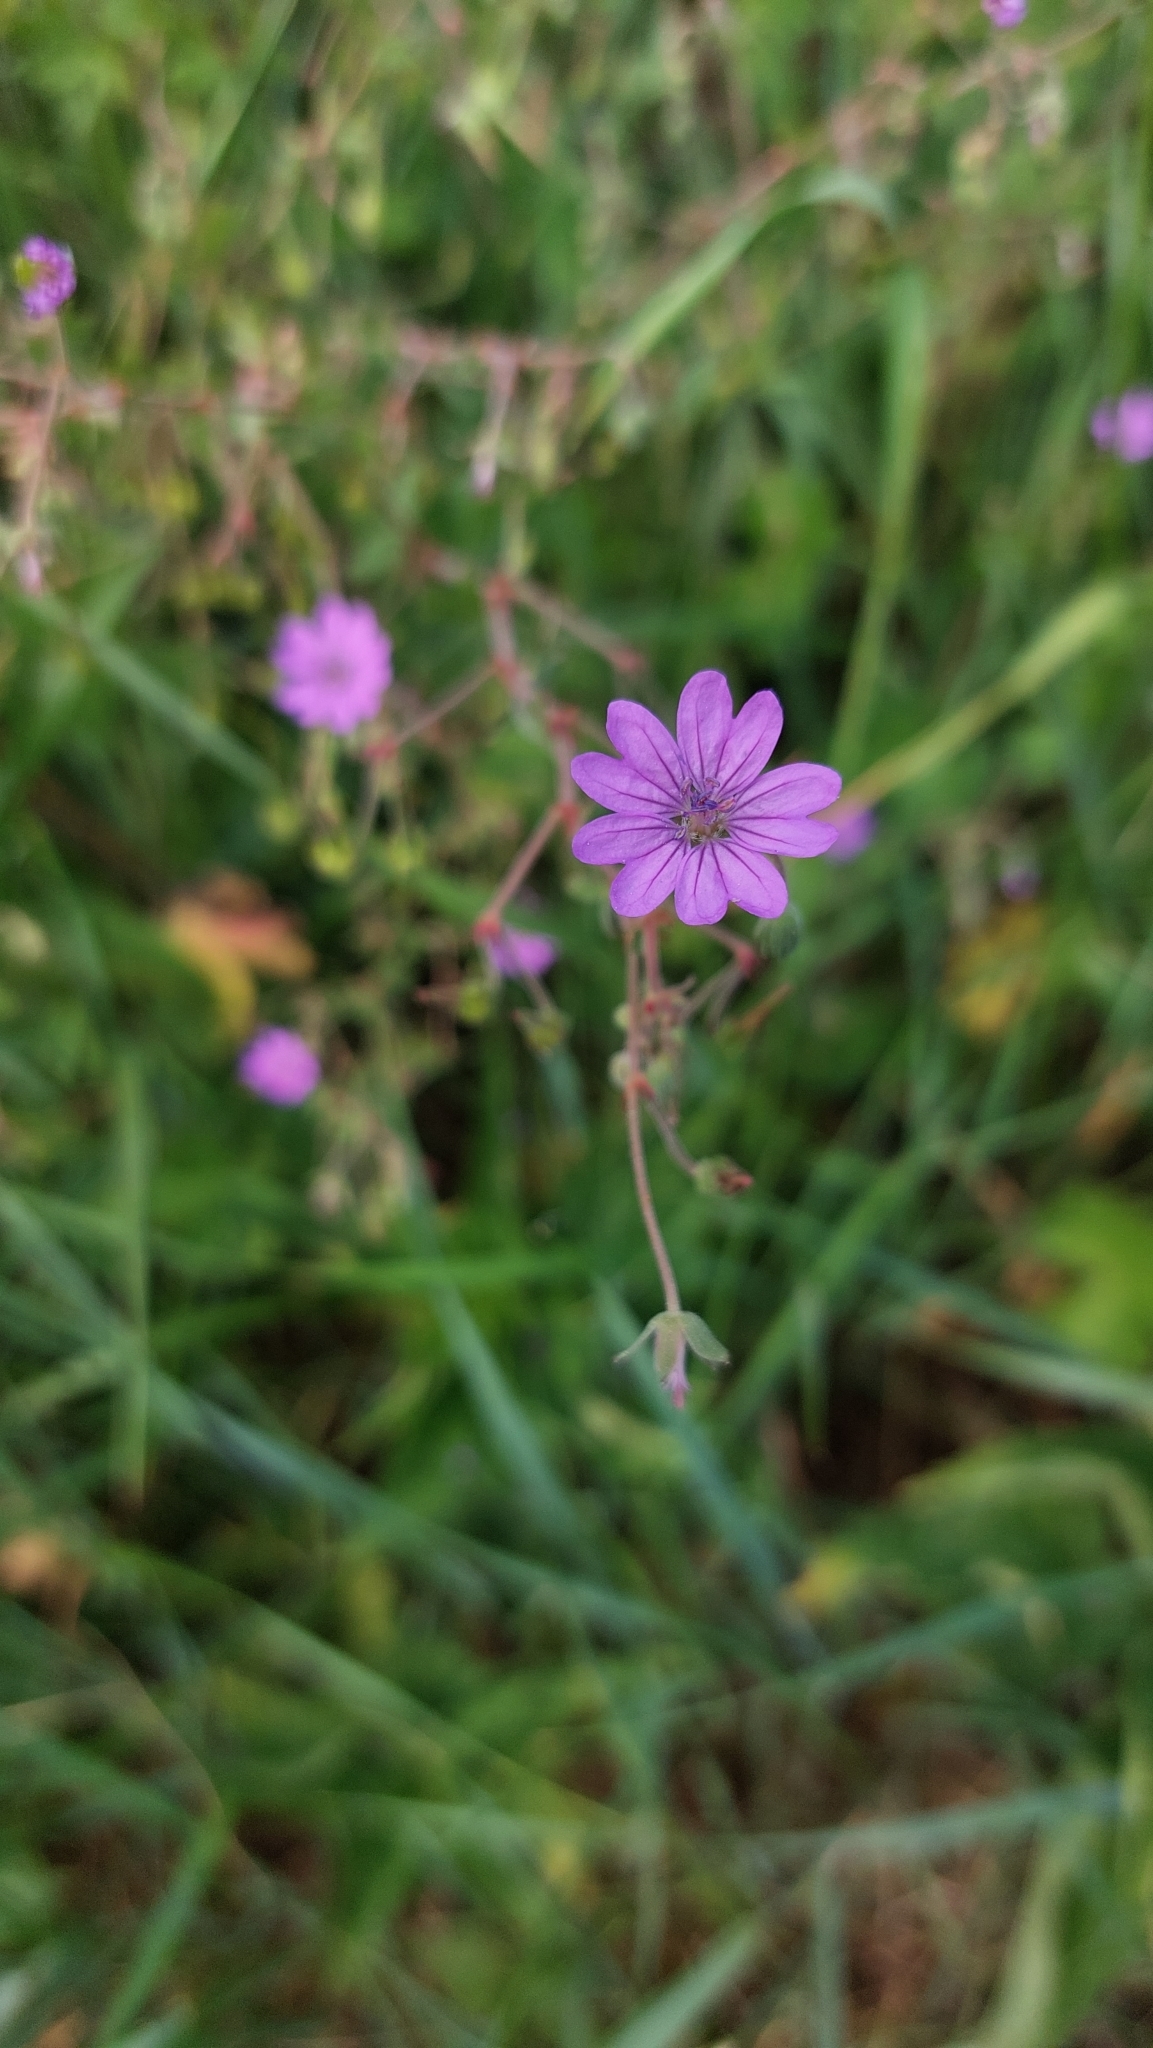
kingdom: Plantae
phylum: Tracheophyta
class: Magnoliopsida
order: Geraniales
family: Geraniaceae
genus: Geranium
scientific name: Geranium pyrenaicum
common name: Hedgerow crane's-bill
